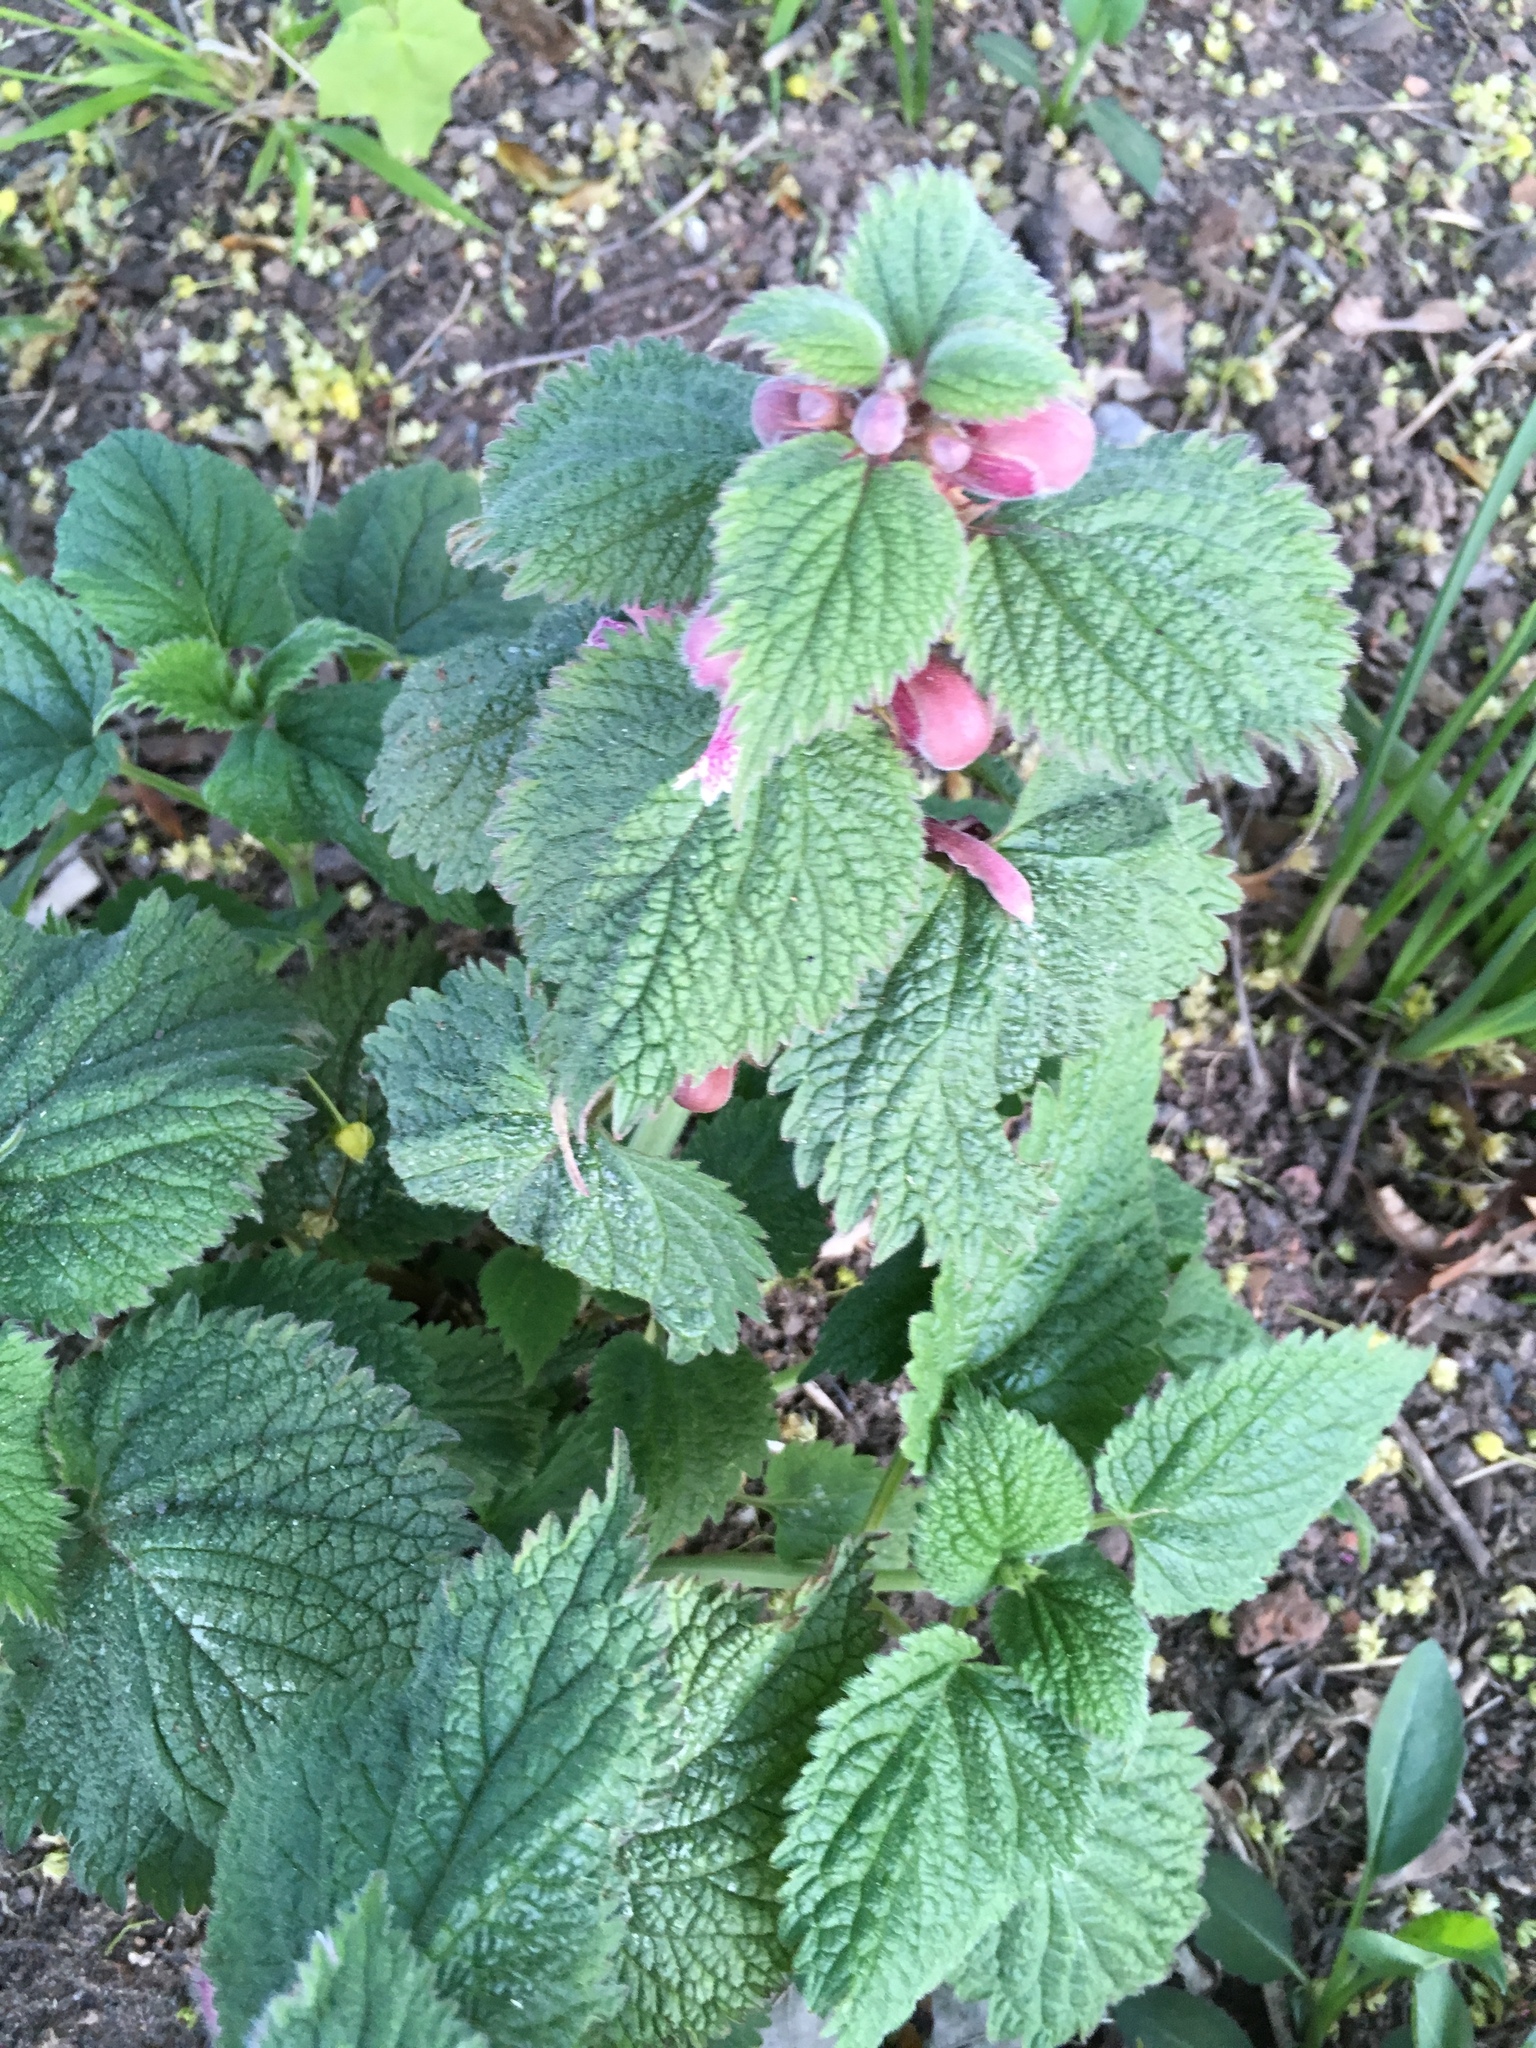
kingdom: Plantae
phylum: Tracheophyta
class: Magnoliopsida
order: Lamiales
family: Lamiaceae
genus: Lamium
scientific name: Lamium orvala
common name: Balm-leaved archangel
